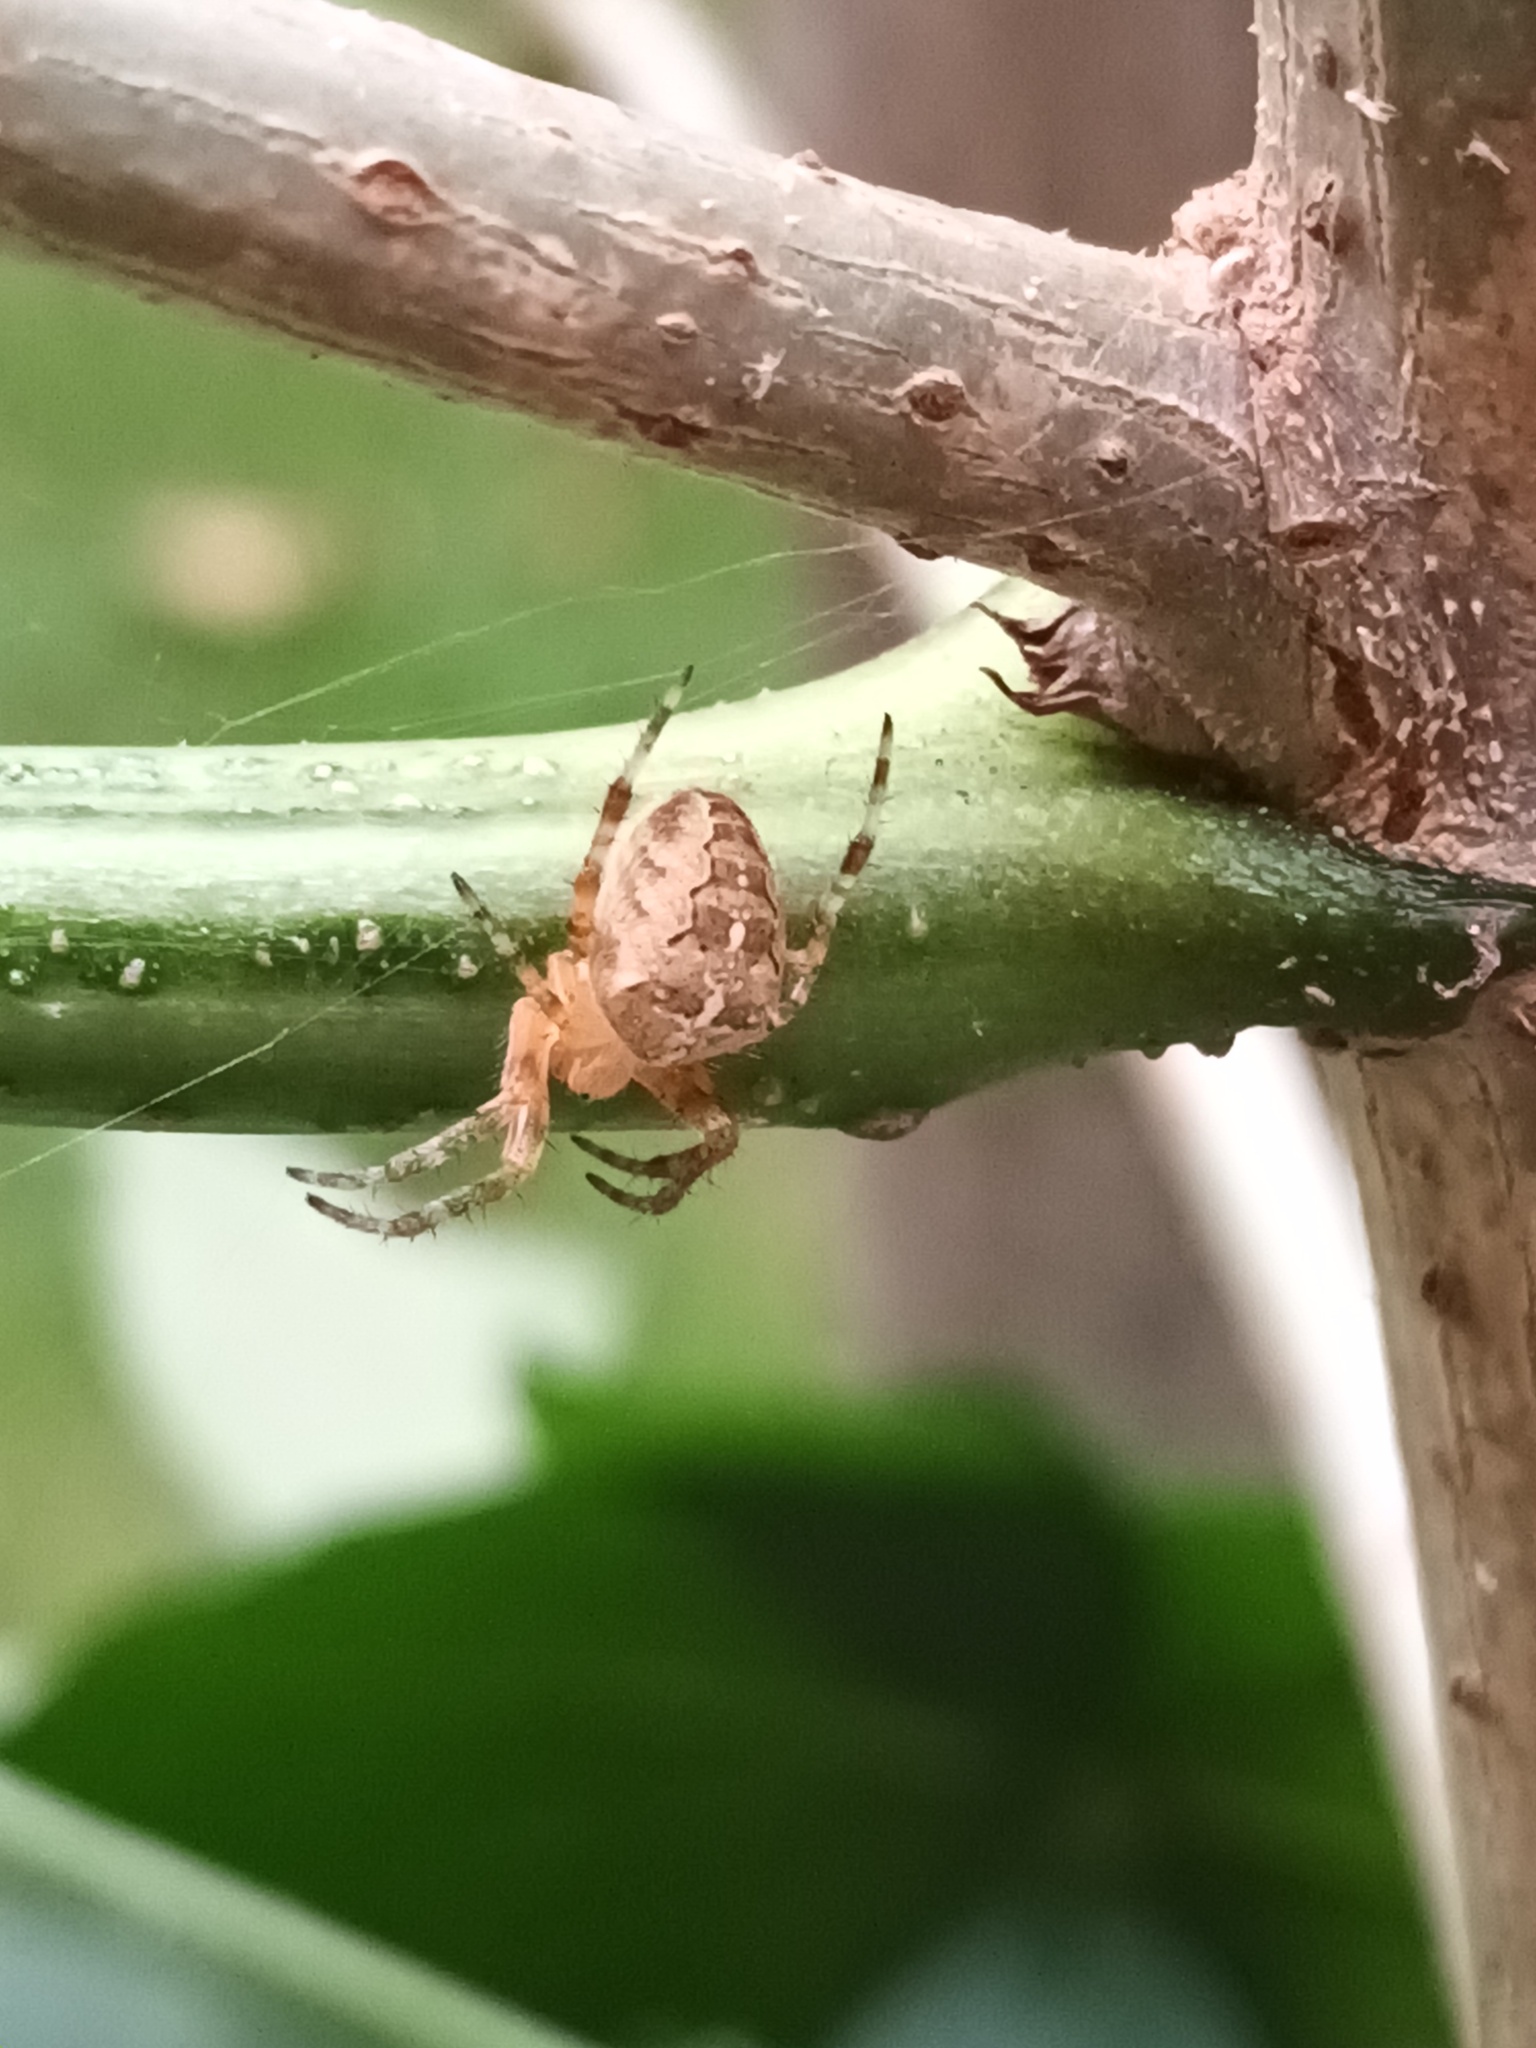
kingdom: Animalia
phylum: Arthropoda
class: Arachnida
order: Araneae
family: Araneidae
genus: Araneus
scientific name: Araneus diadematus
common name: Cross orbweaver
